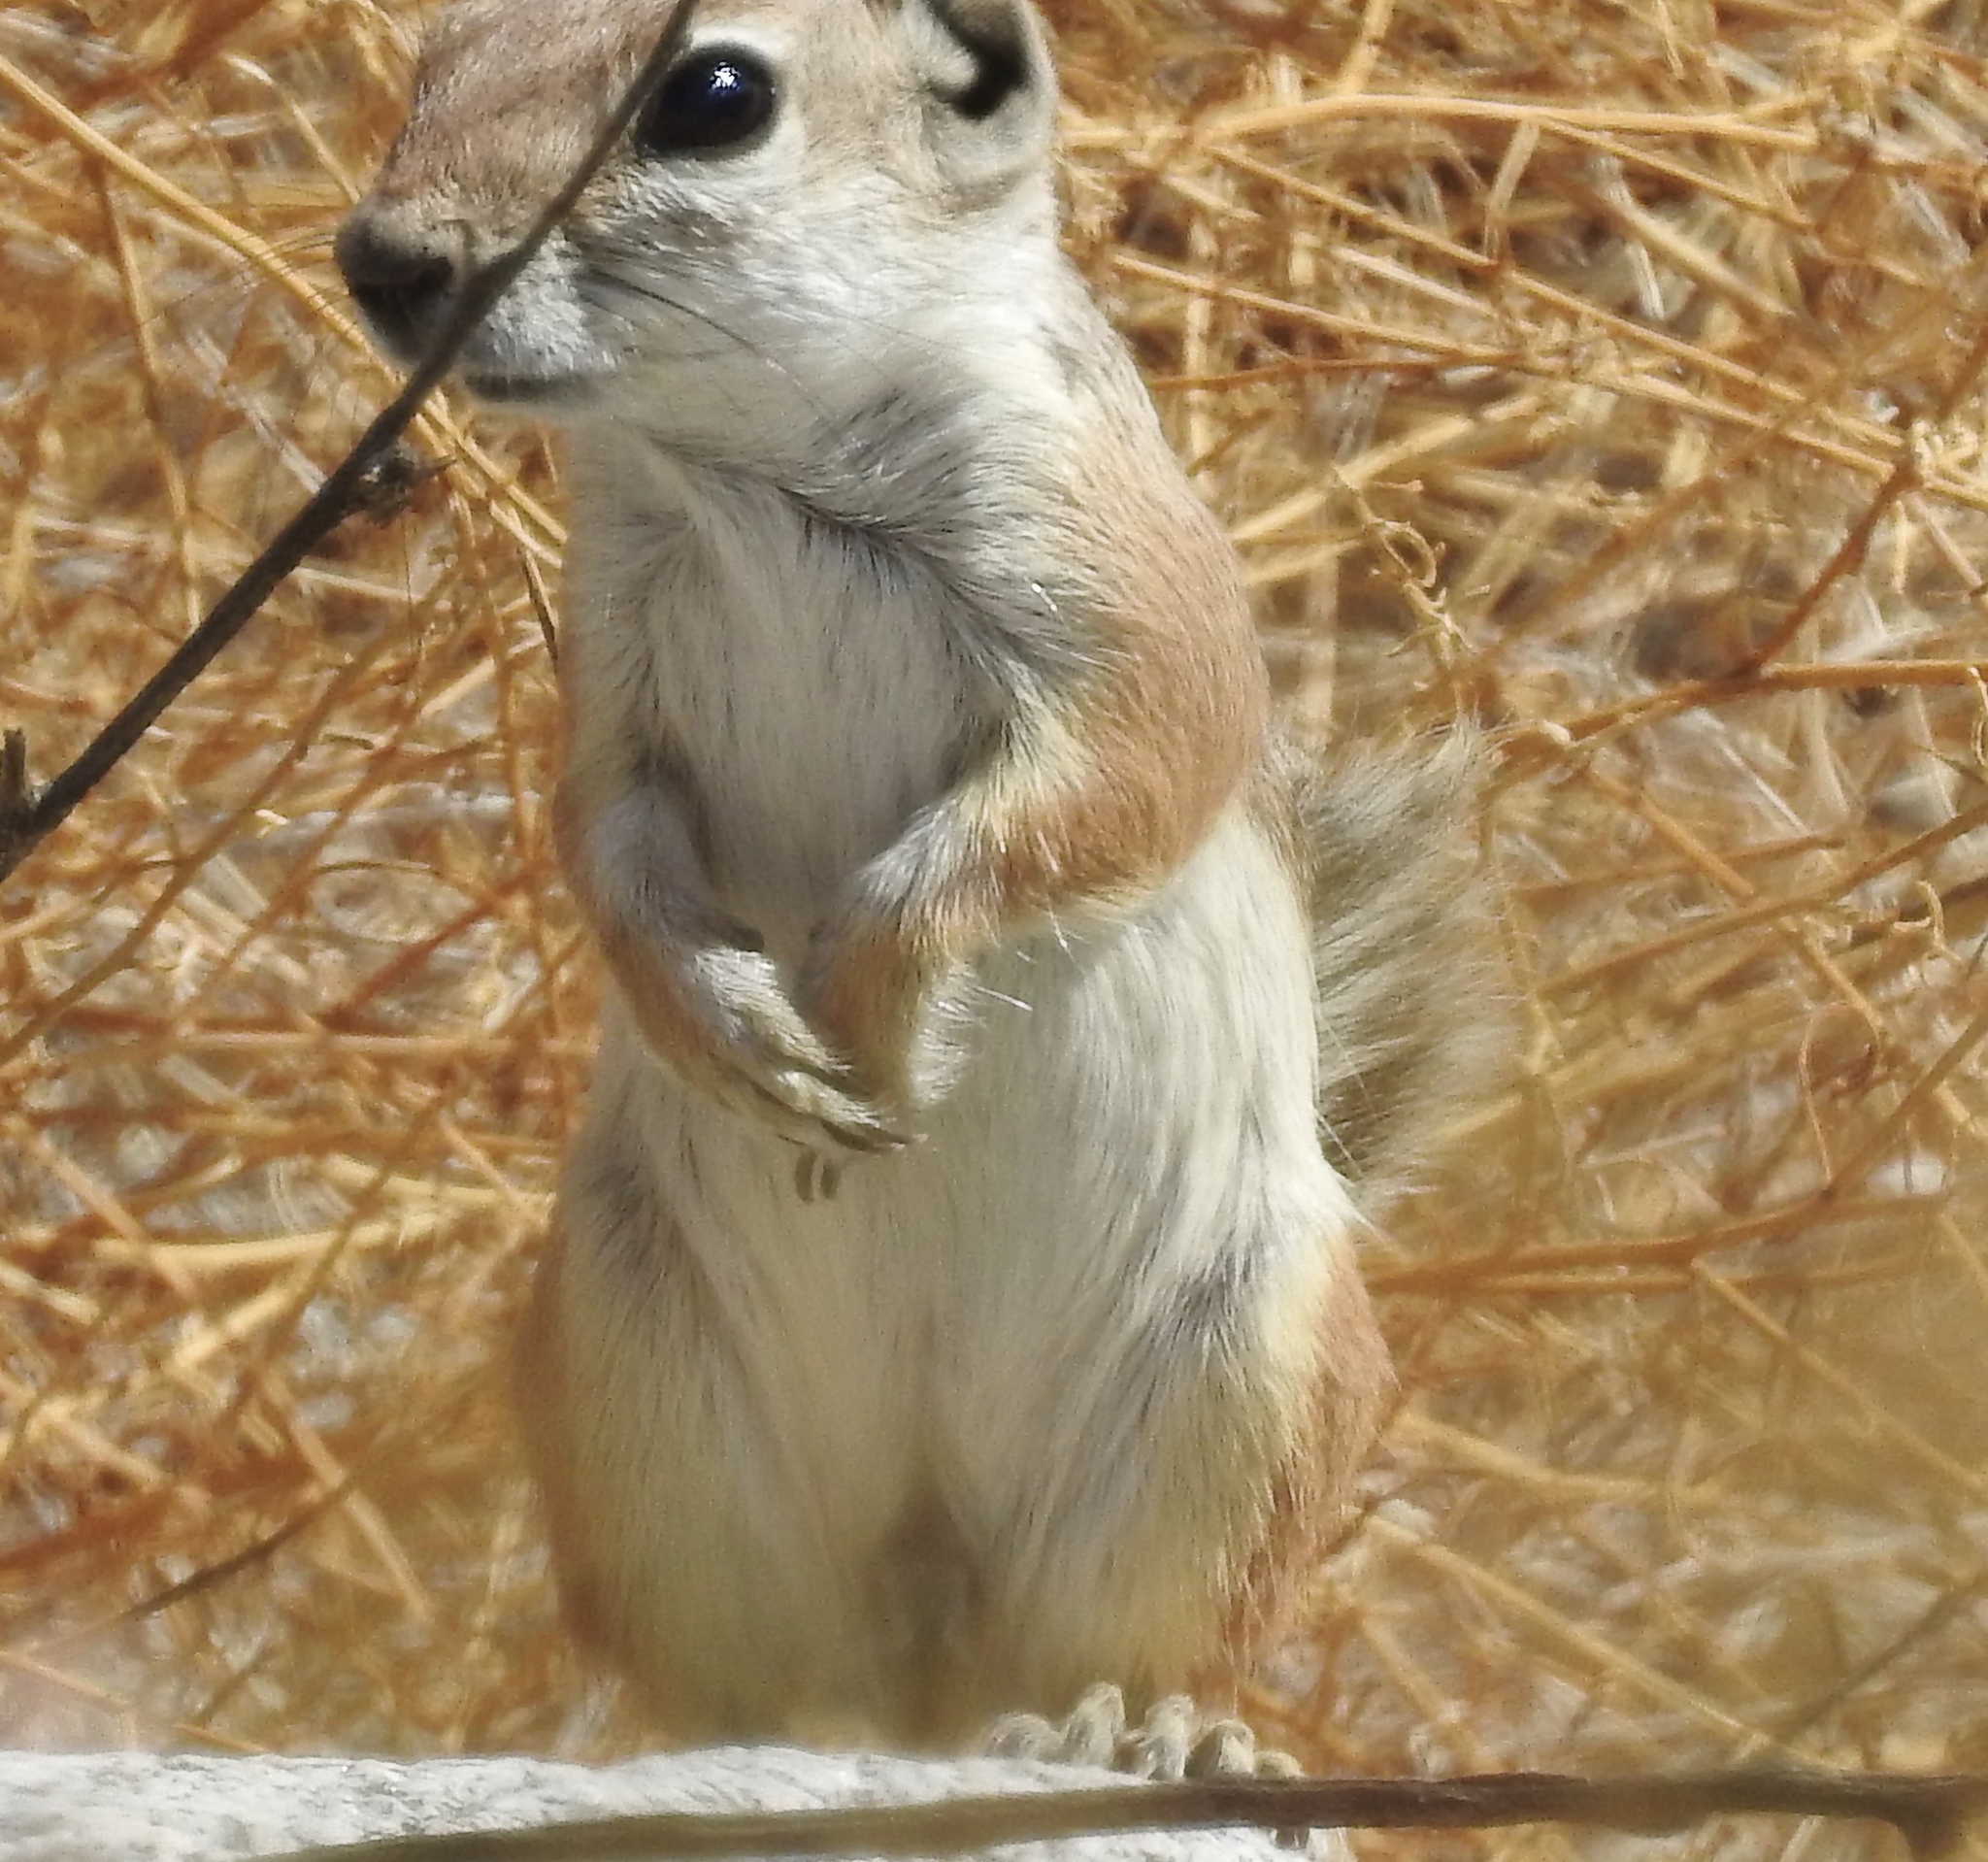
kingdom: Animalia
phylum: Chordata
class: Mammalia
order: Rodentia
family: Sciuridae
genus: Ammospermophilus
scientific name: Ammospermophilus leucurus
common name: White-tailed antelope squirrel
